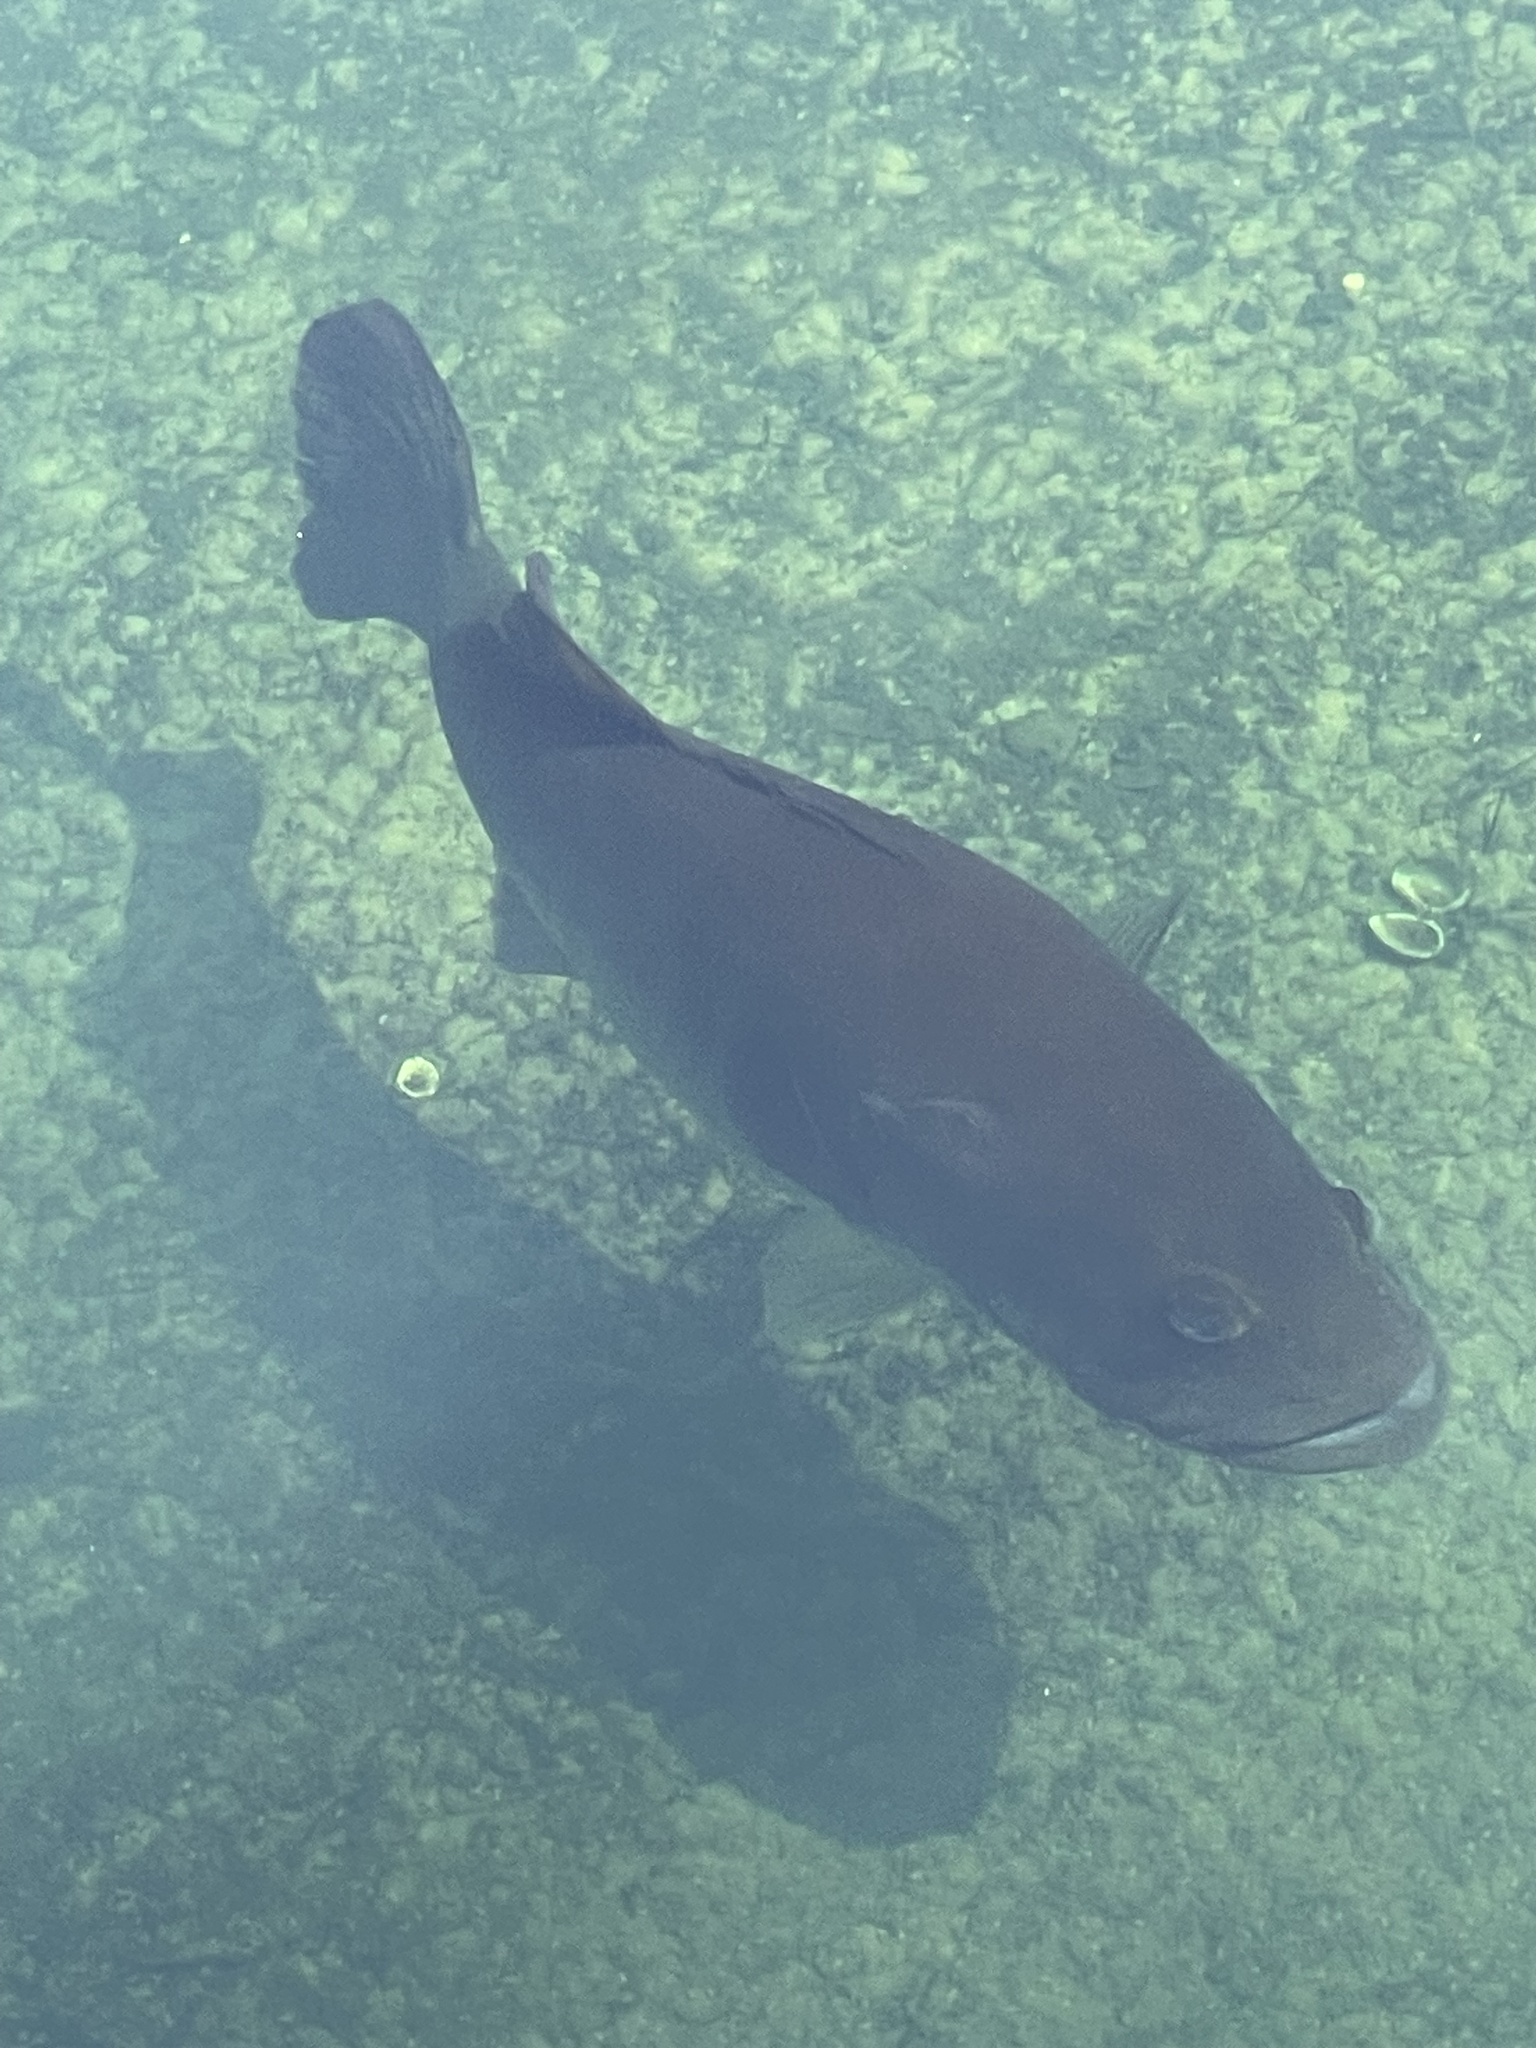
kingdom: Animalia
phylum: Chordata
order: Perciformes
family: Centrarchidae
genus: Micropterus
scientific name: Micropterus salmoides
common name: Largemouth bass
